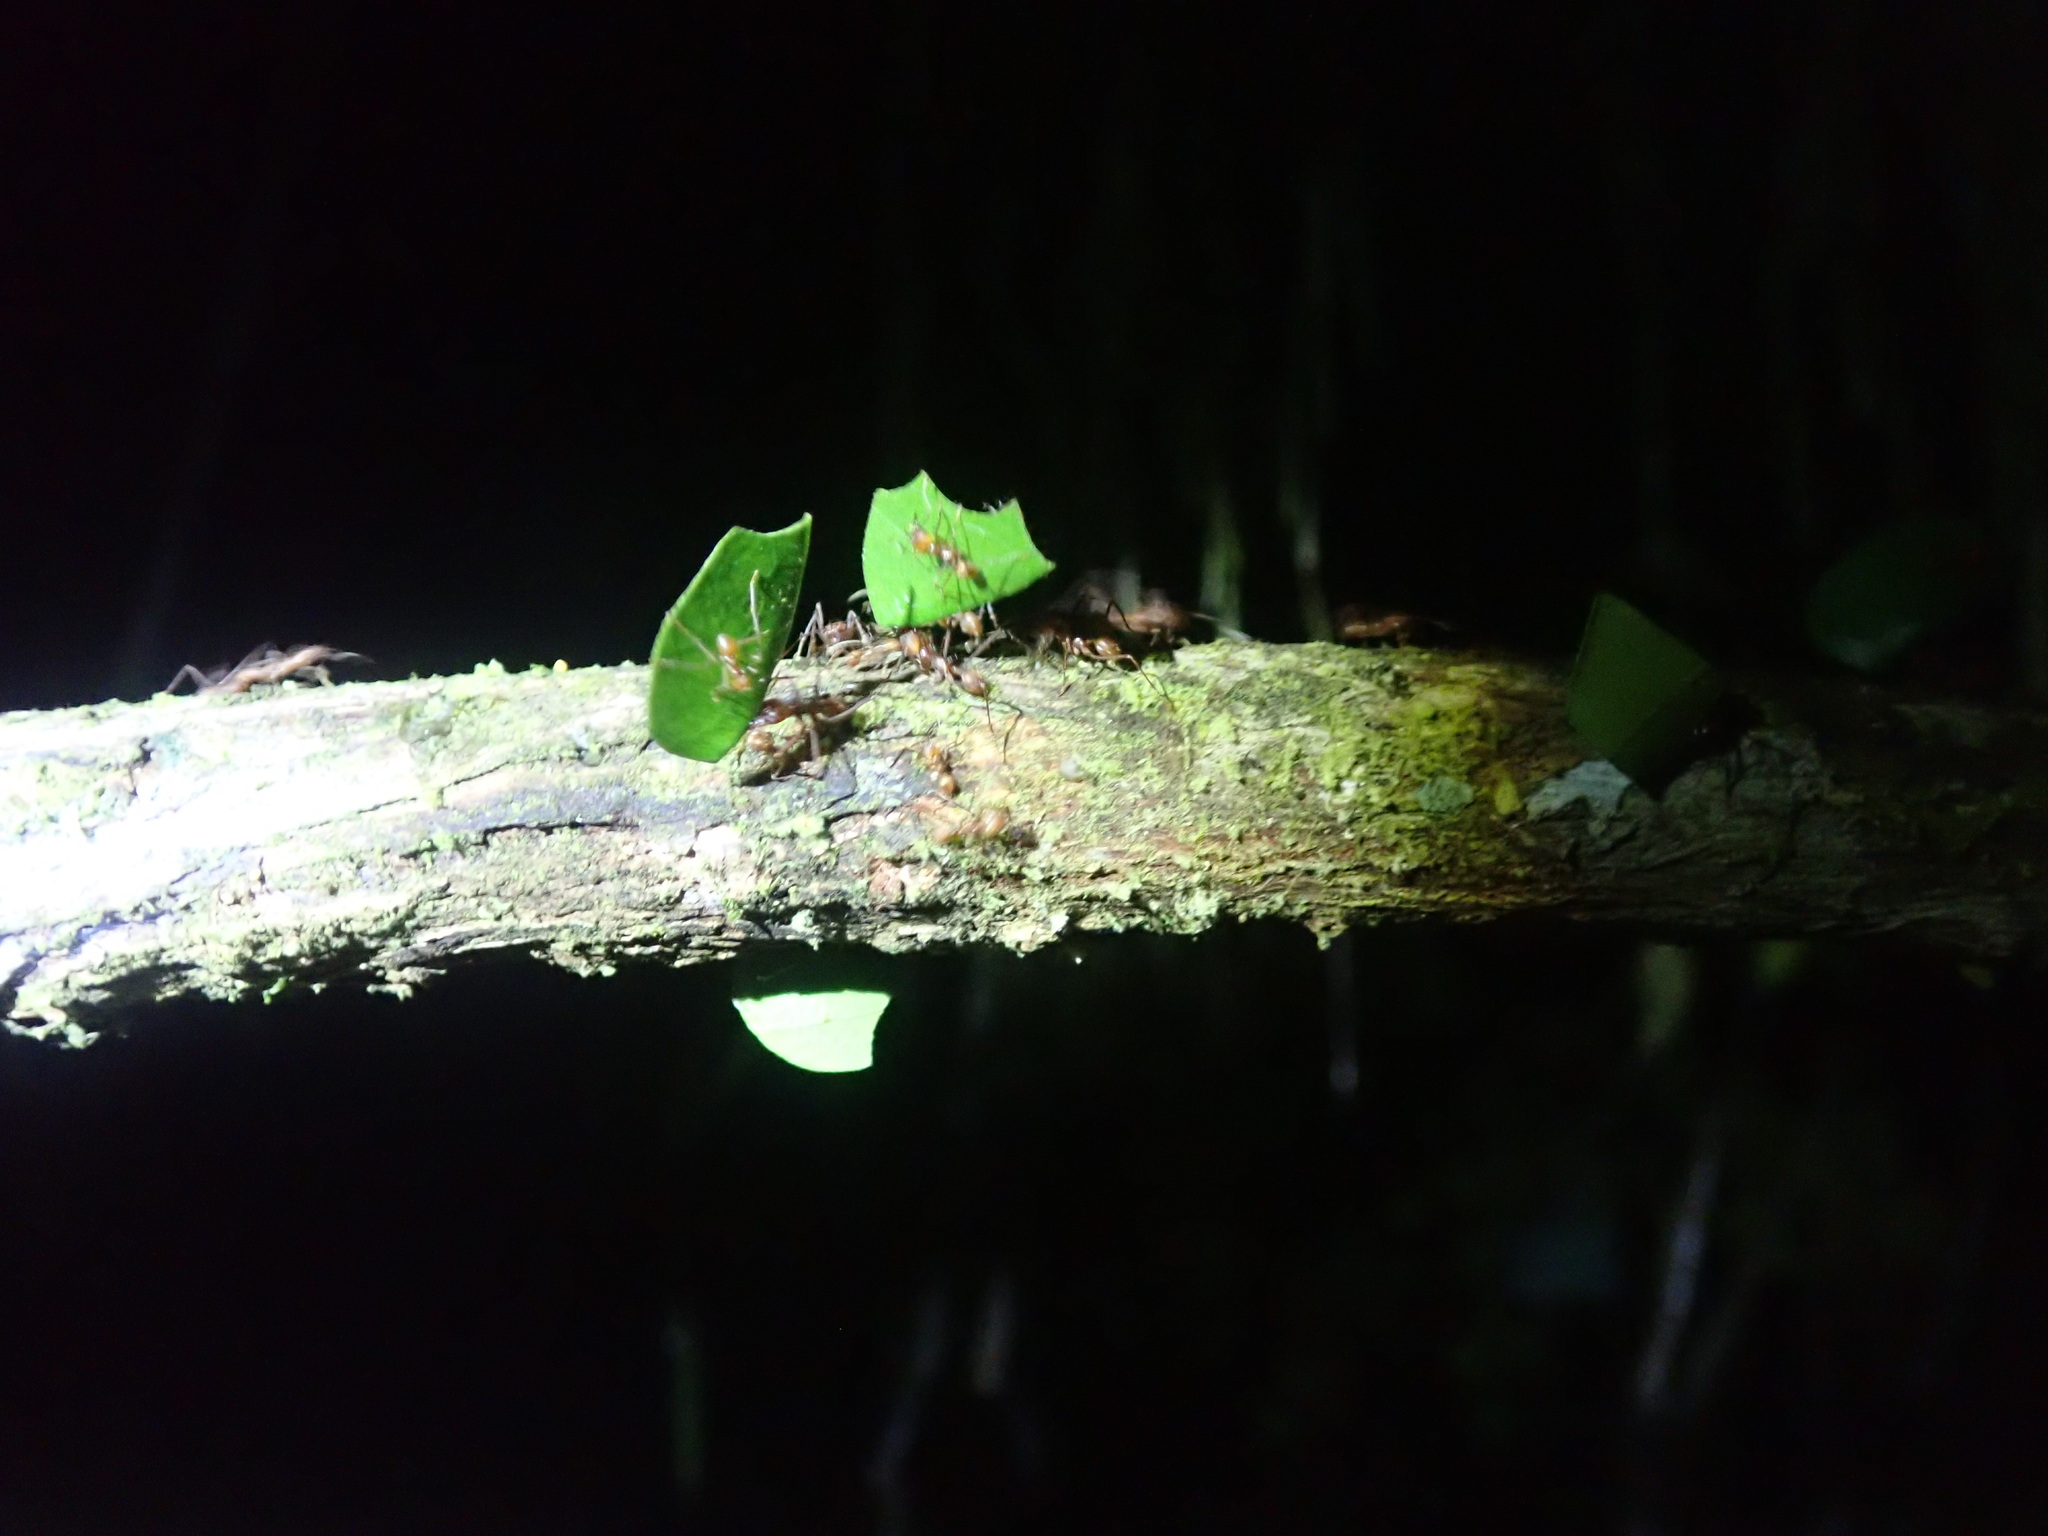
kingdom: Animalia
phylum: Arthropoda
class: Insecta
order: Hymenoptera
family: Formicidae
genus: Atta
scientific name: Atta cephalotes
